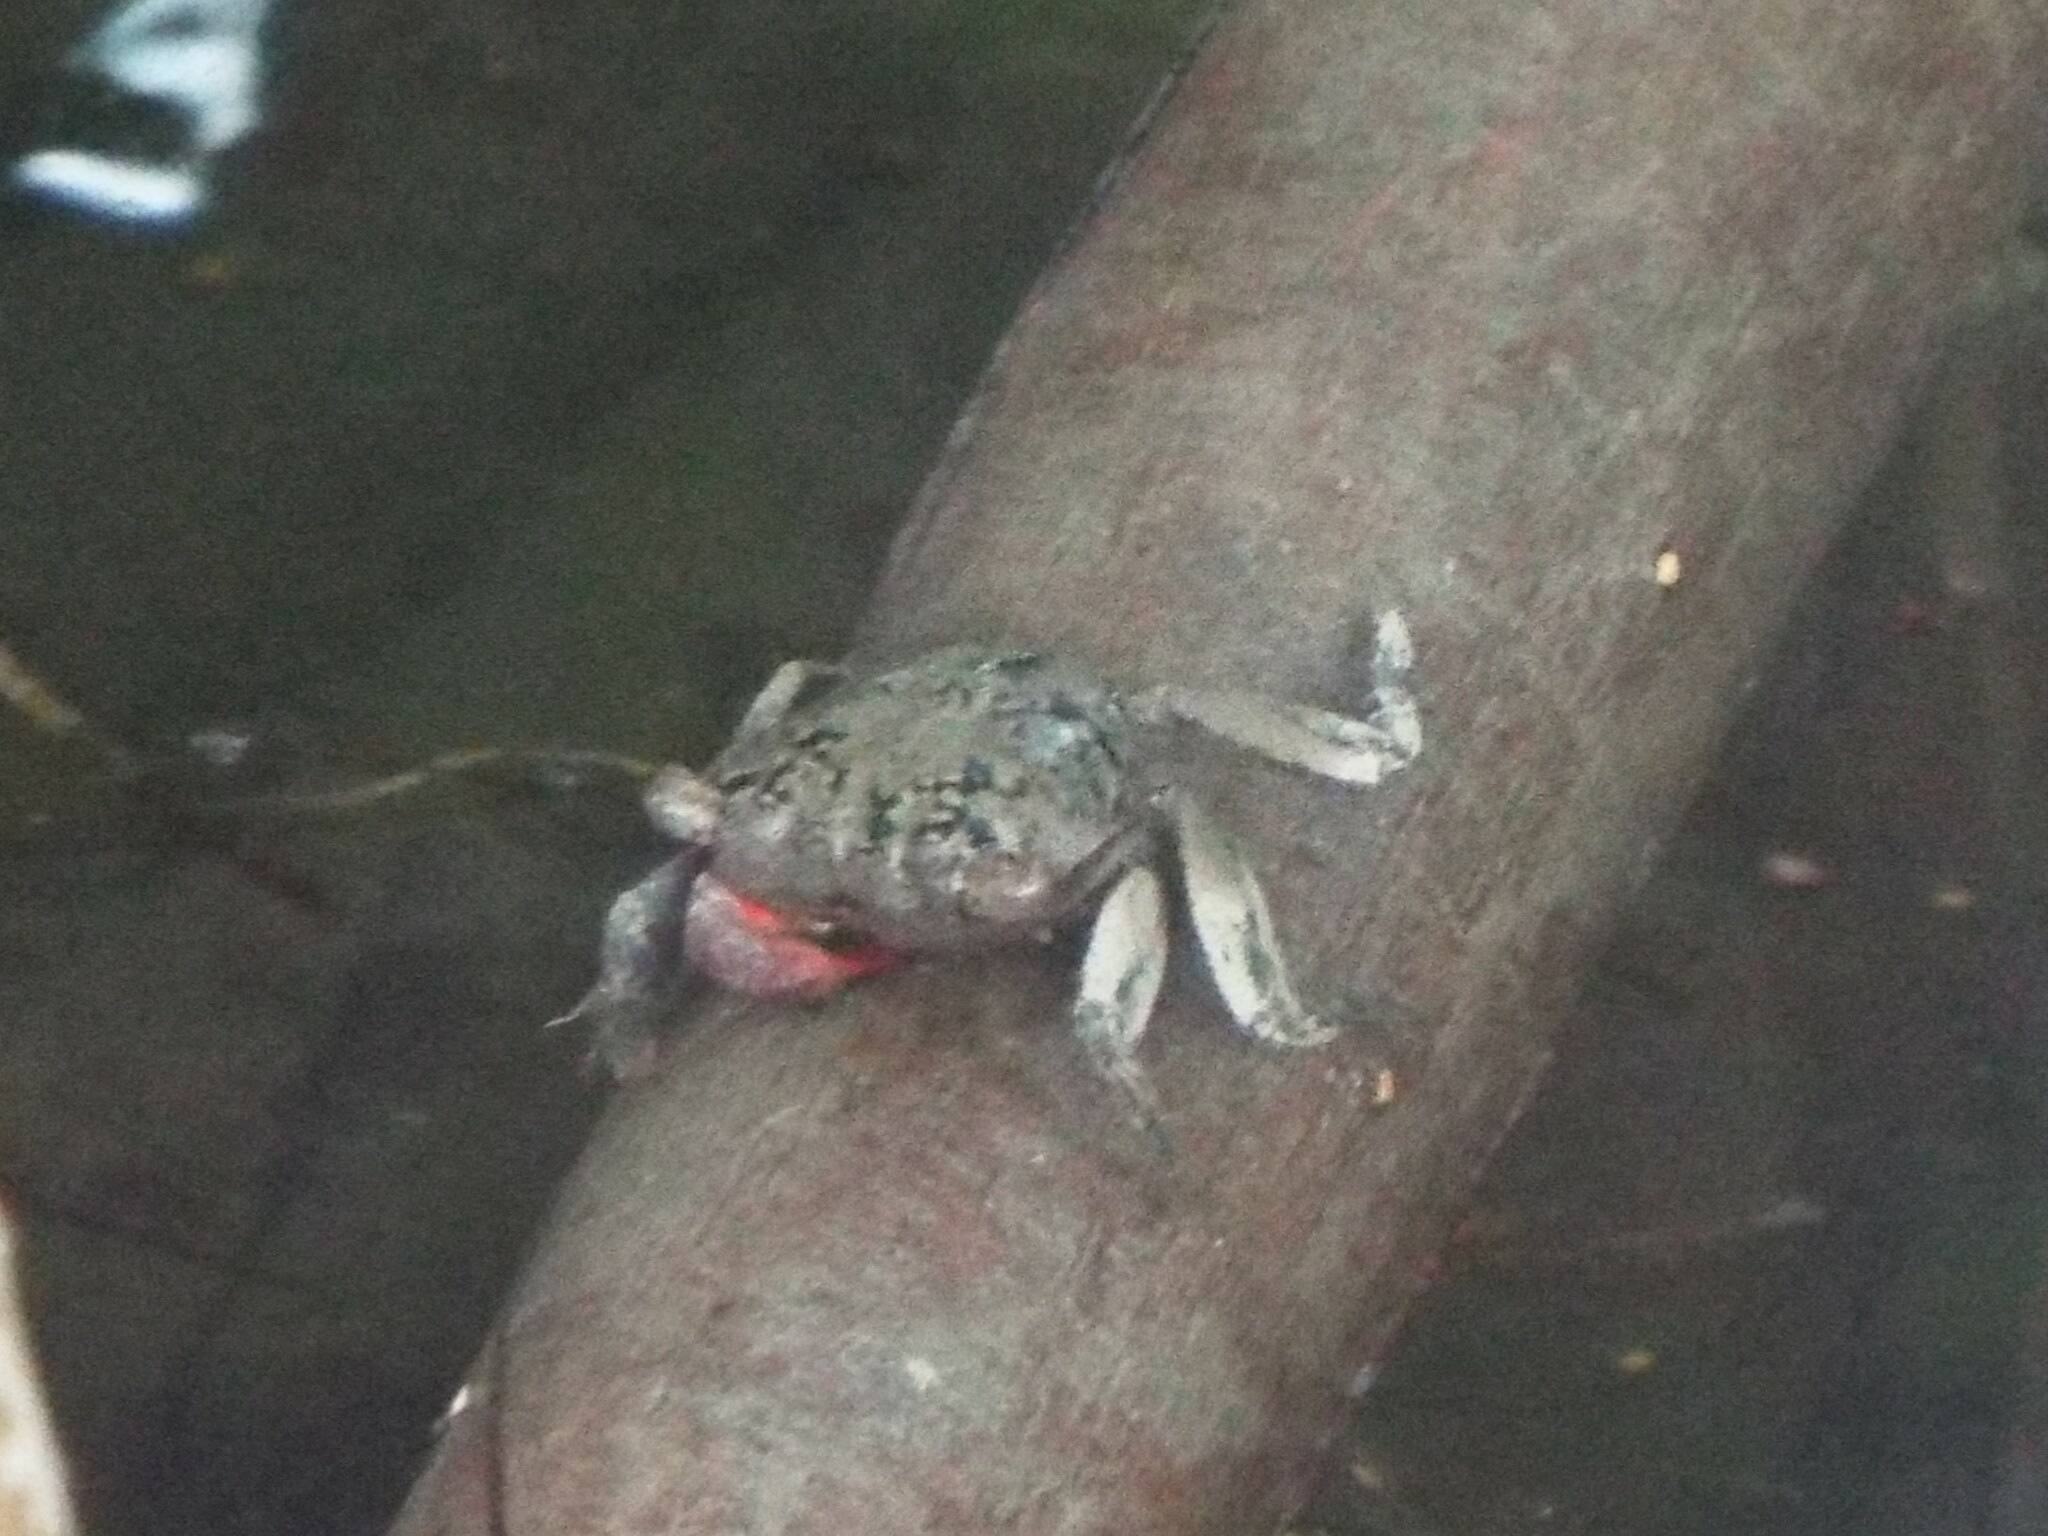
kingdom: Animalia
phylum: Arthropoda
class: Malacostraca
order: Decapoda
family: Sesarmidae
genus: Aratus
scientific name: Aratus pisonii
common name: Mangrove crab
